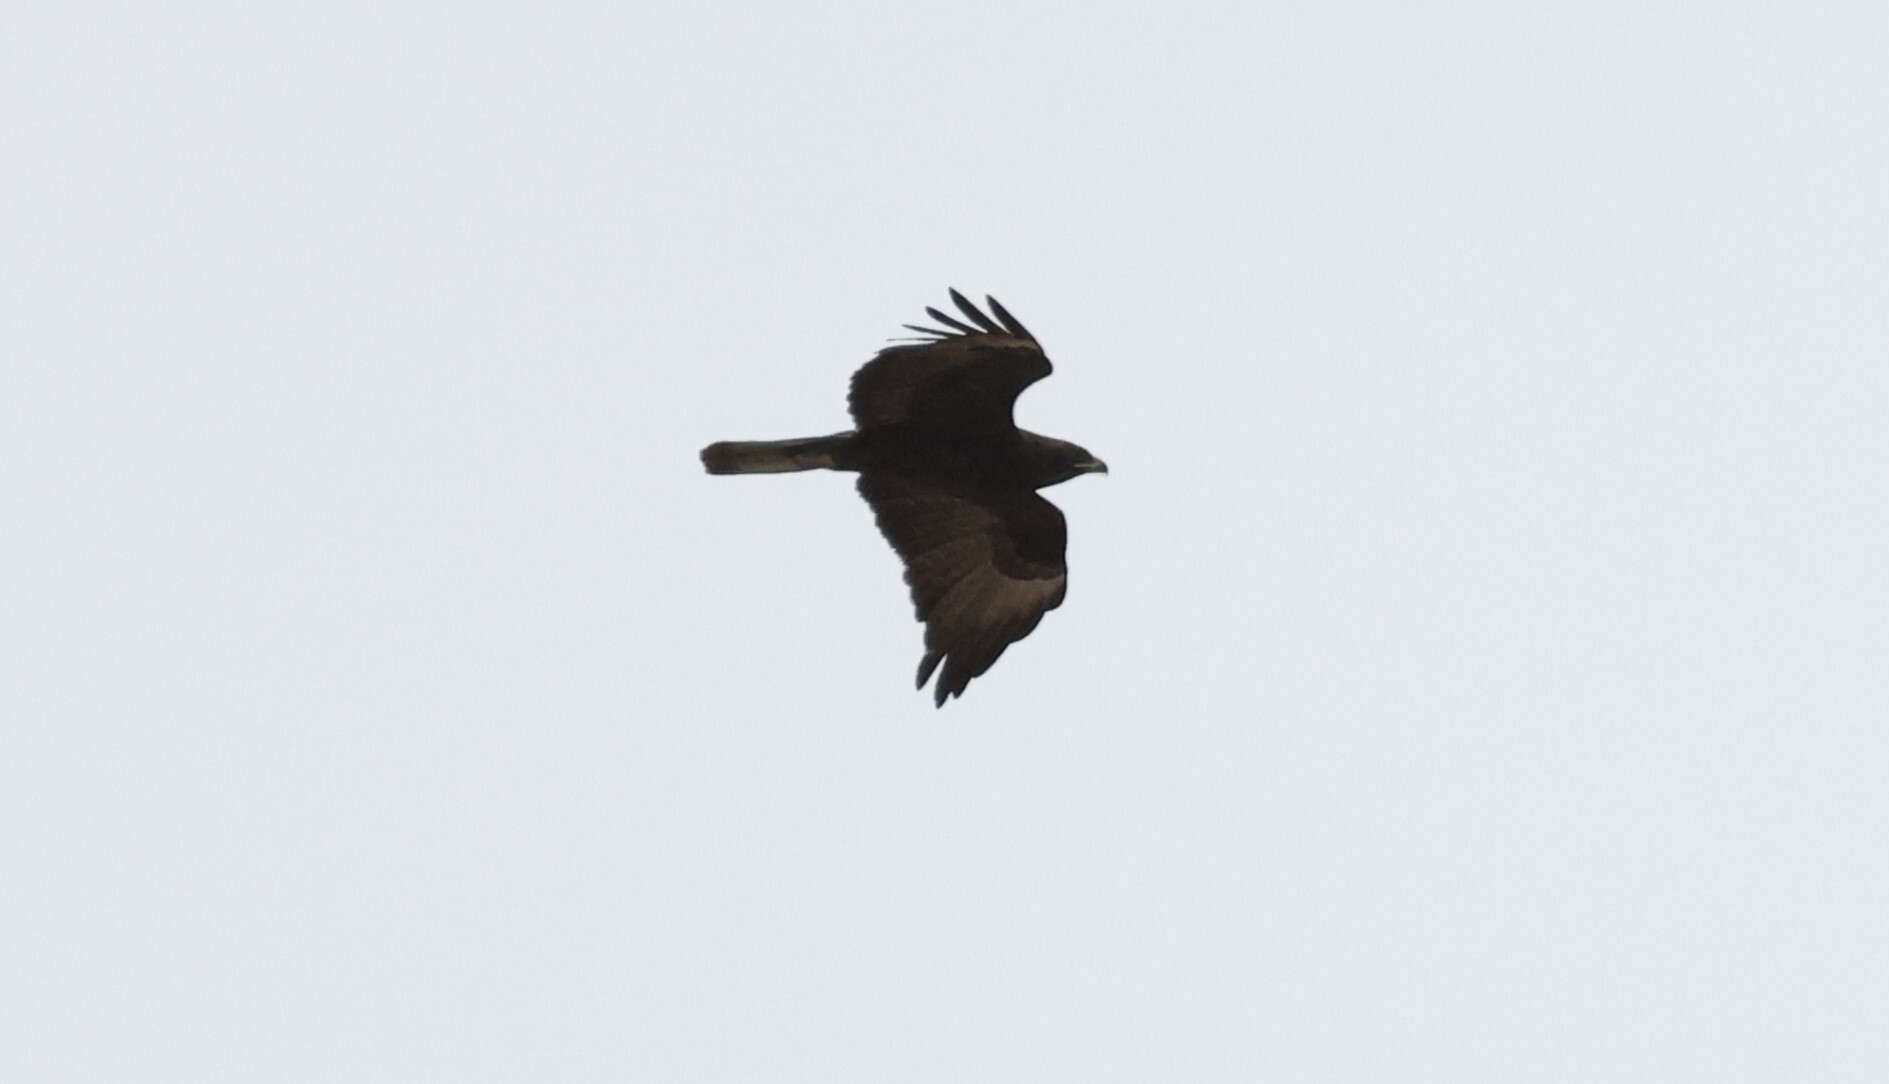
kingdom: Animalia
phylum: Chordata
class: Aves
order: Accipitriformes
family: Accipitridae
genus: Hieraaetus
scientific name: Hieraaetus wahlbergi
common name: Wahlberg's eagle
